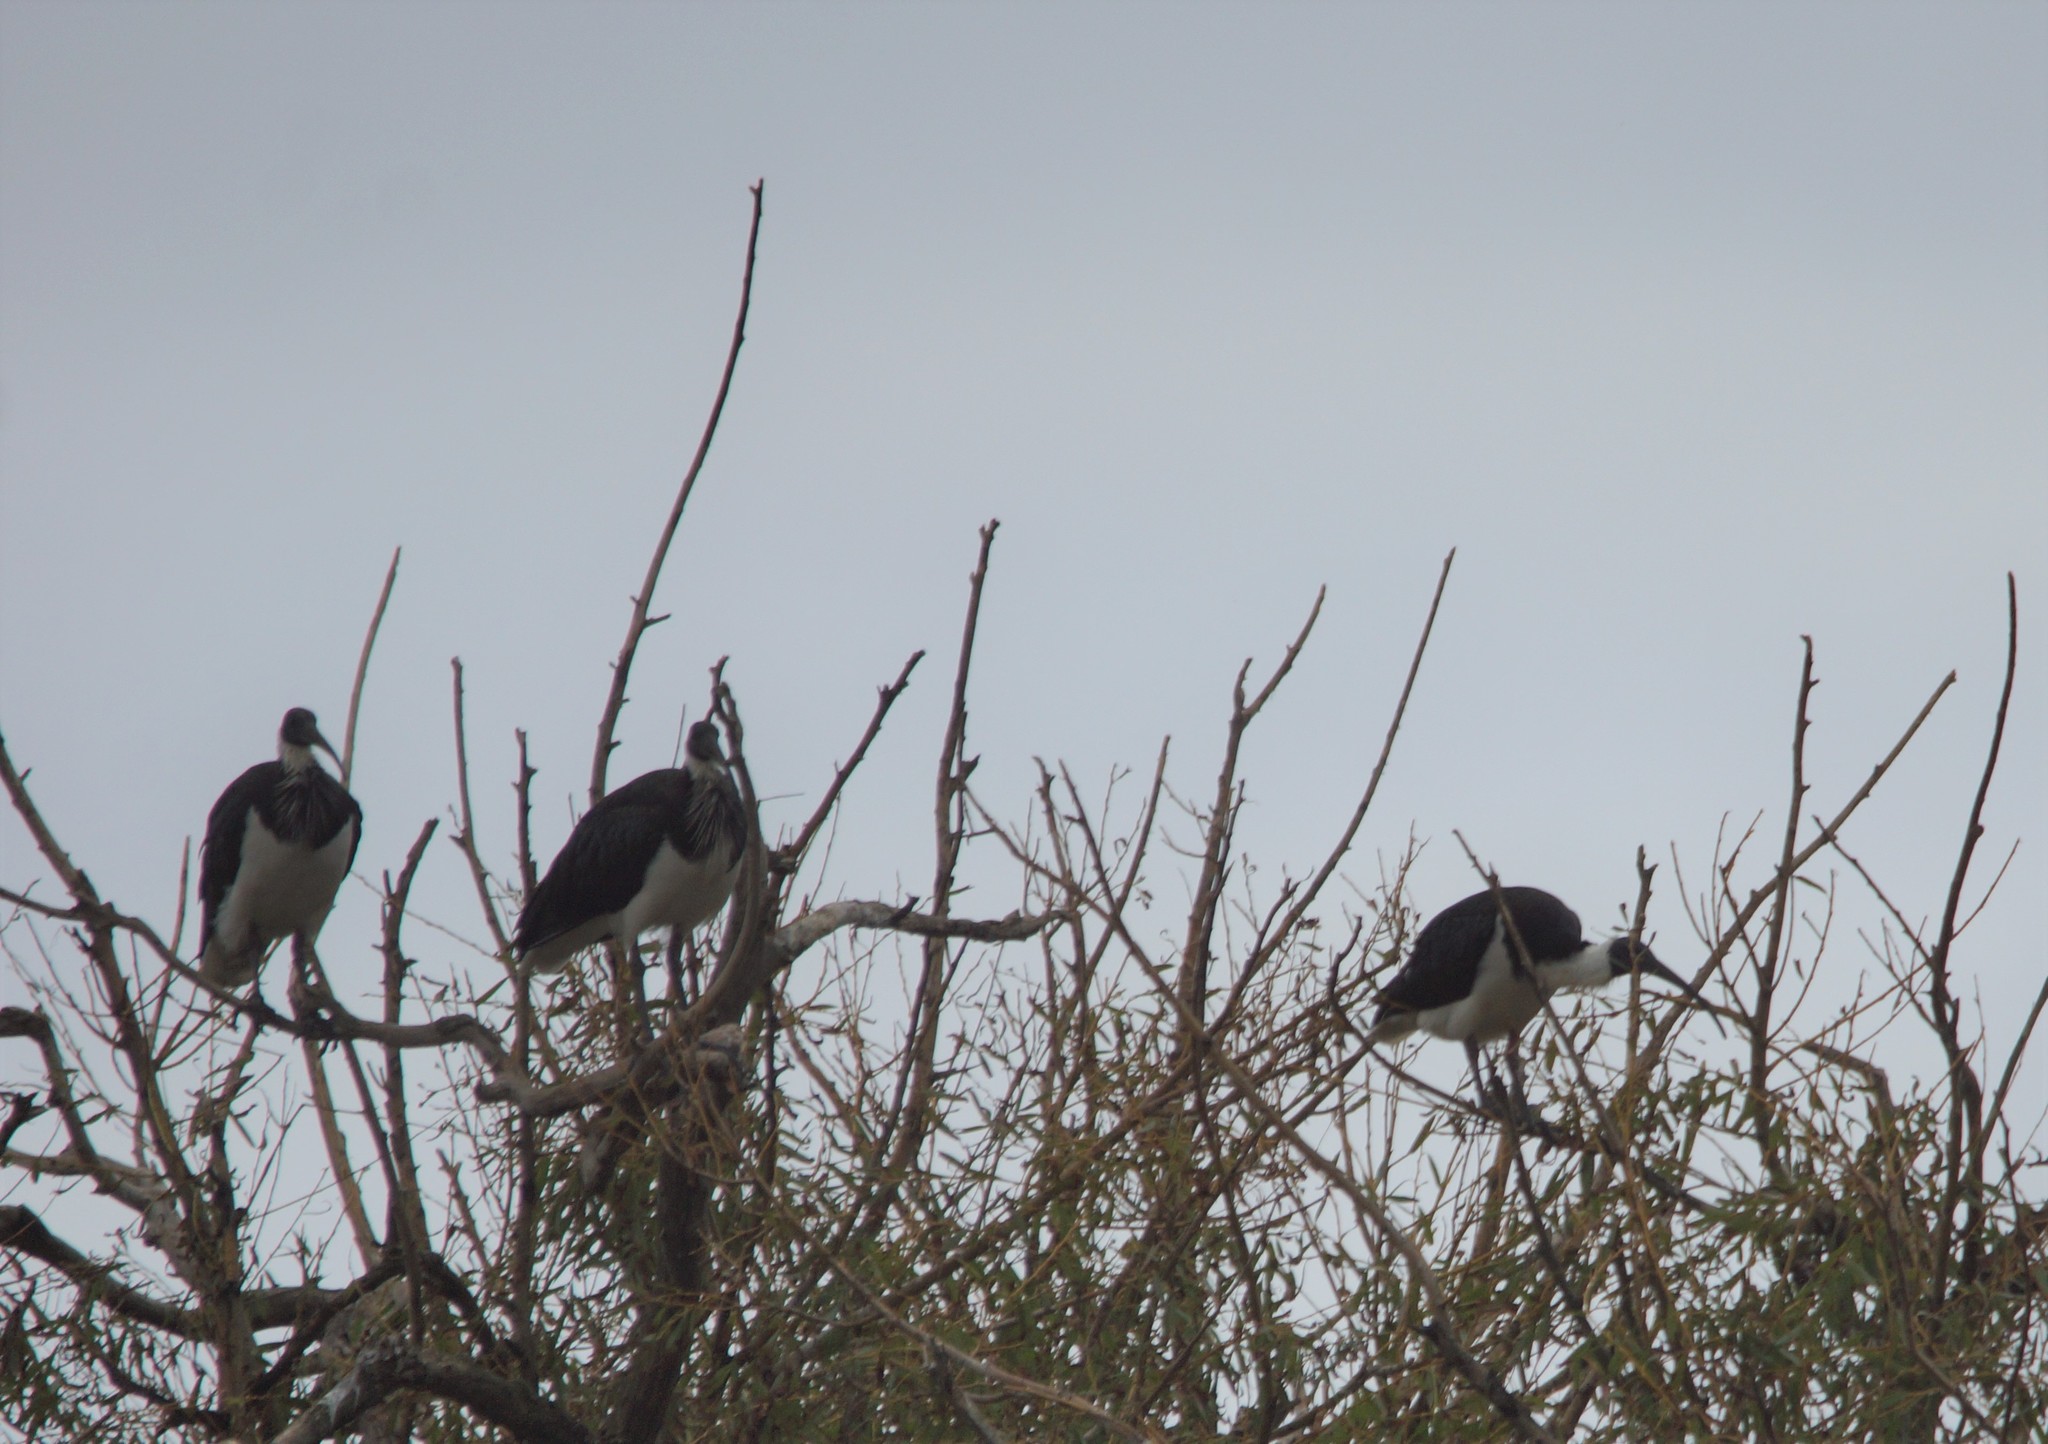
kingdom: Animalia
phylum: Chordata
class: Aves
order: Pelecaniformes
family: Threskiornithidae
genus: Threskiornis
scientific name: Threskiornis spinicollis
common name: Straw-necked ibis
